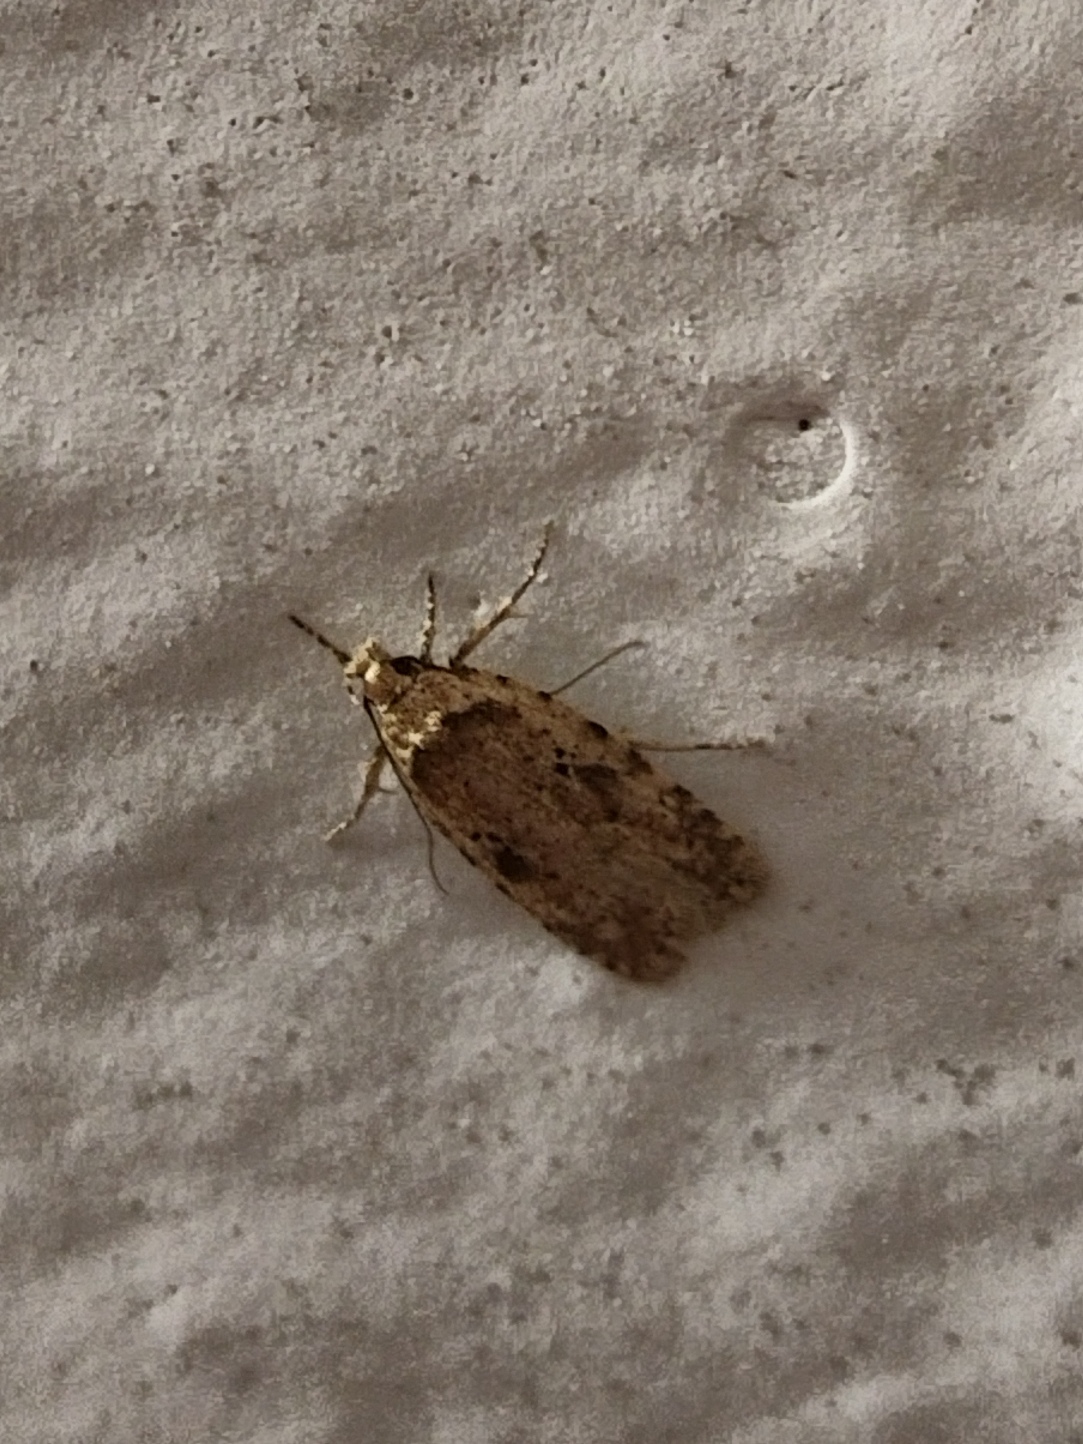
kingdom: Animalia
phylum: Arthropoda
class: Insecta
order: Lepidoptera
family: Depressariidae
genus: Agonopterix
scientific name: Agonopterix arenella
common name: Brindled flat-body
